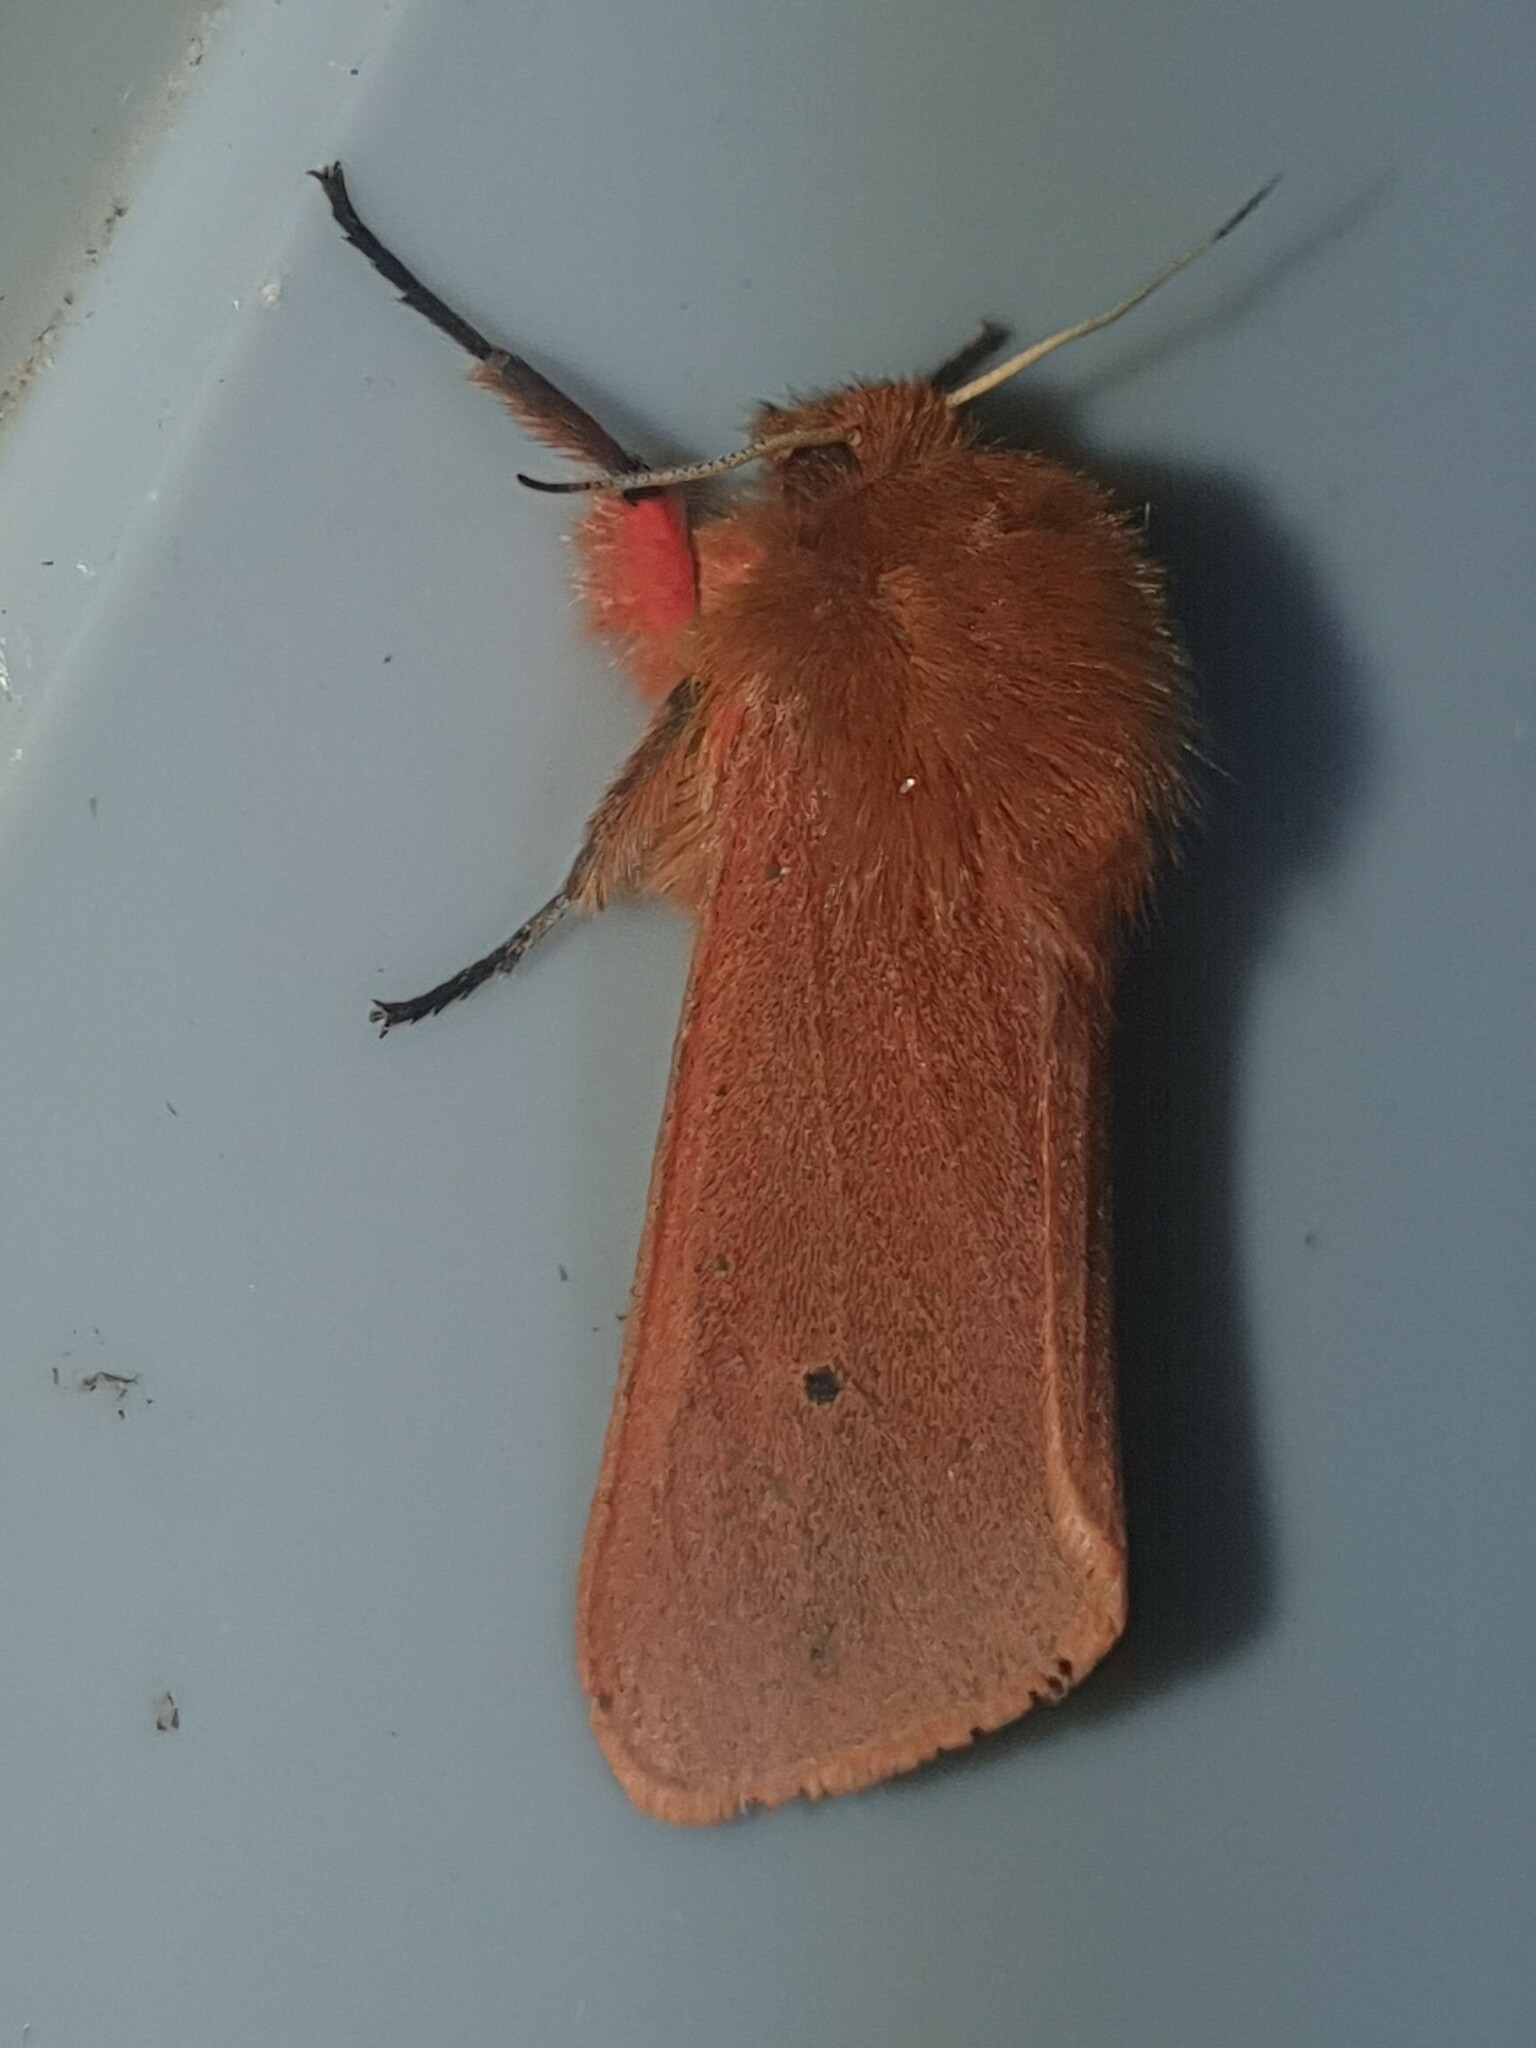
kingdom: Animalia
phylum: Arthropoda
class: Insecta
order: Lepidoptera
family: Erebidae
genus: Phragmatobia
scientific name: Phragmatobia fuliginosa
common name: Ruby tiger
